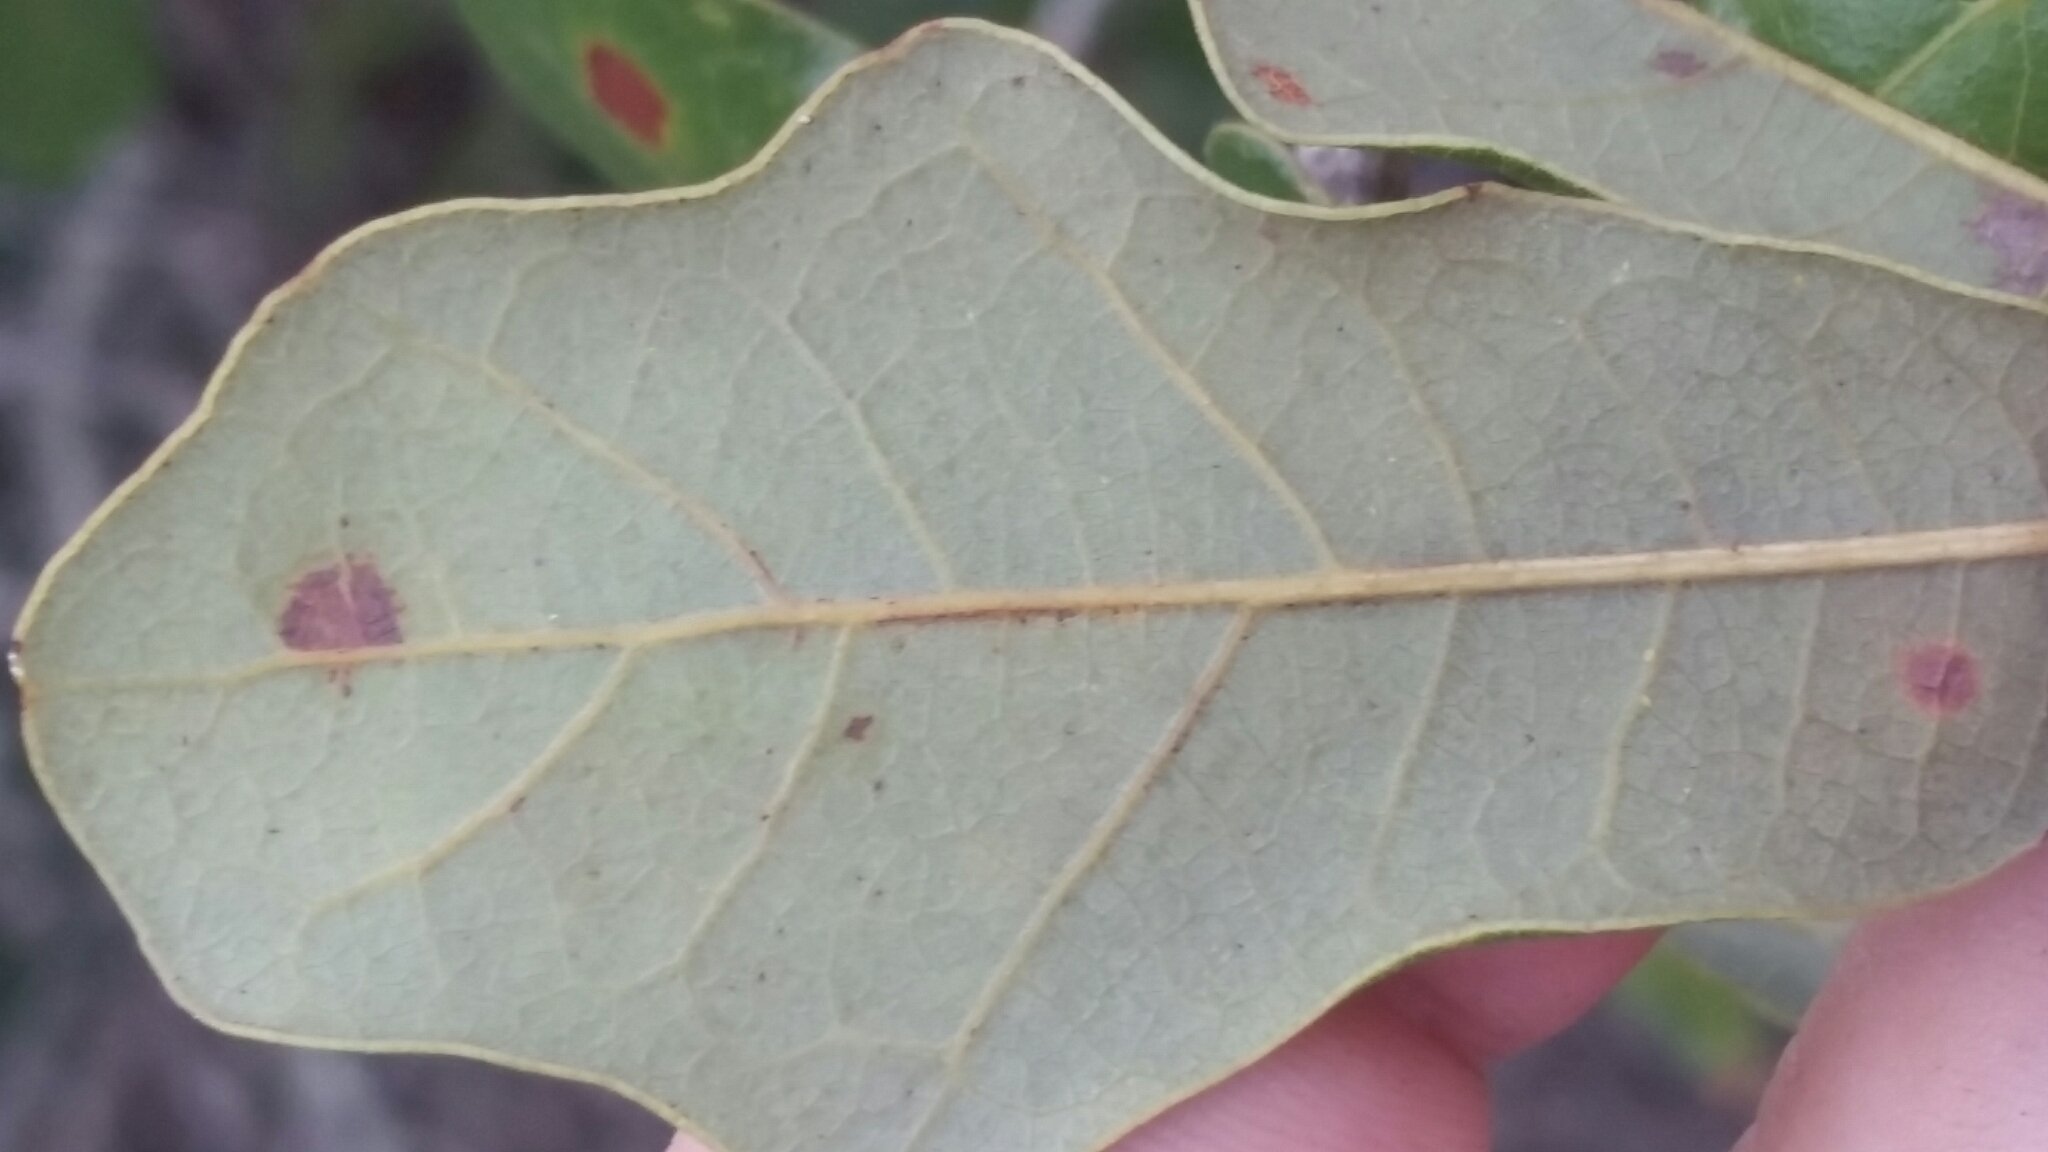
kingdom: Plantae
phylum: Tracheophyta
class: Magnoliopsida
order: Fagales
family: Fagaceae
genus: Quercus
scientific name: Quercus chapmanii
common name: Chapman oak
